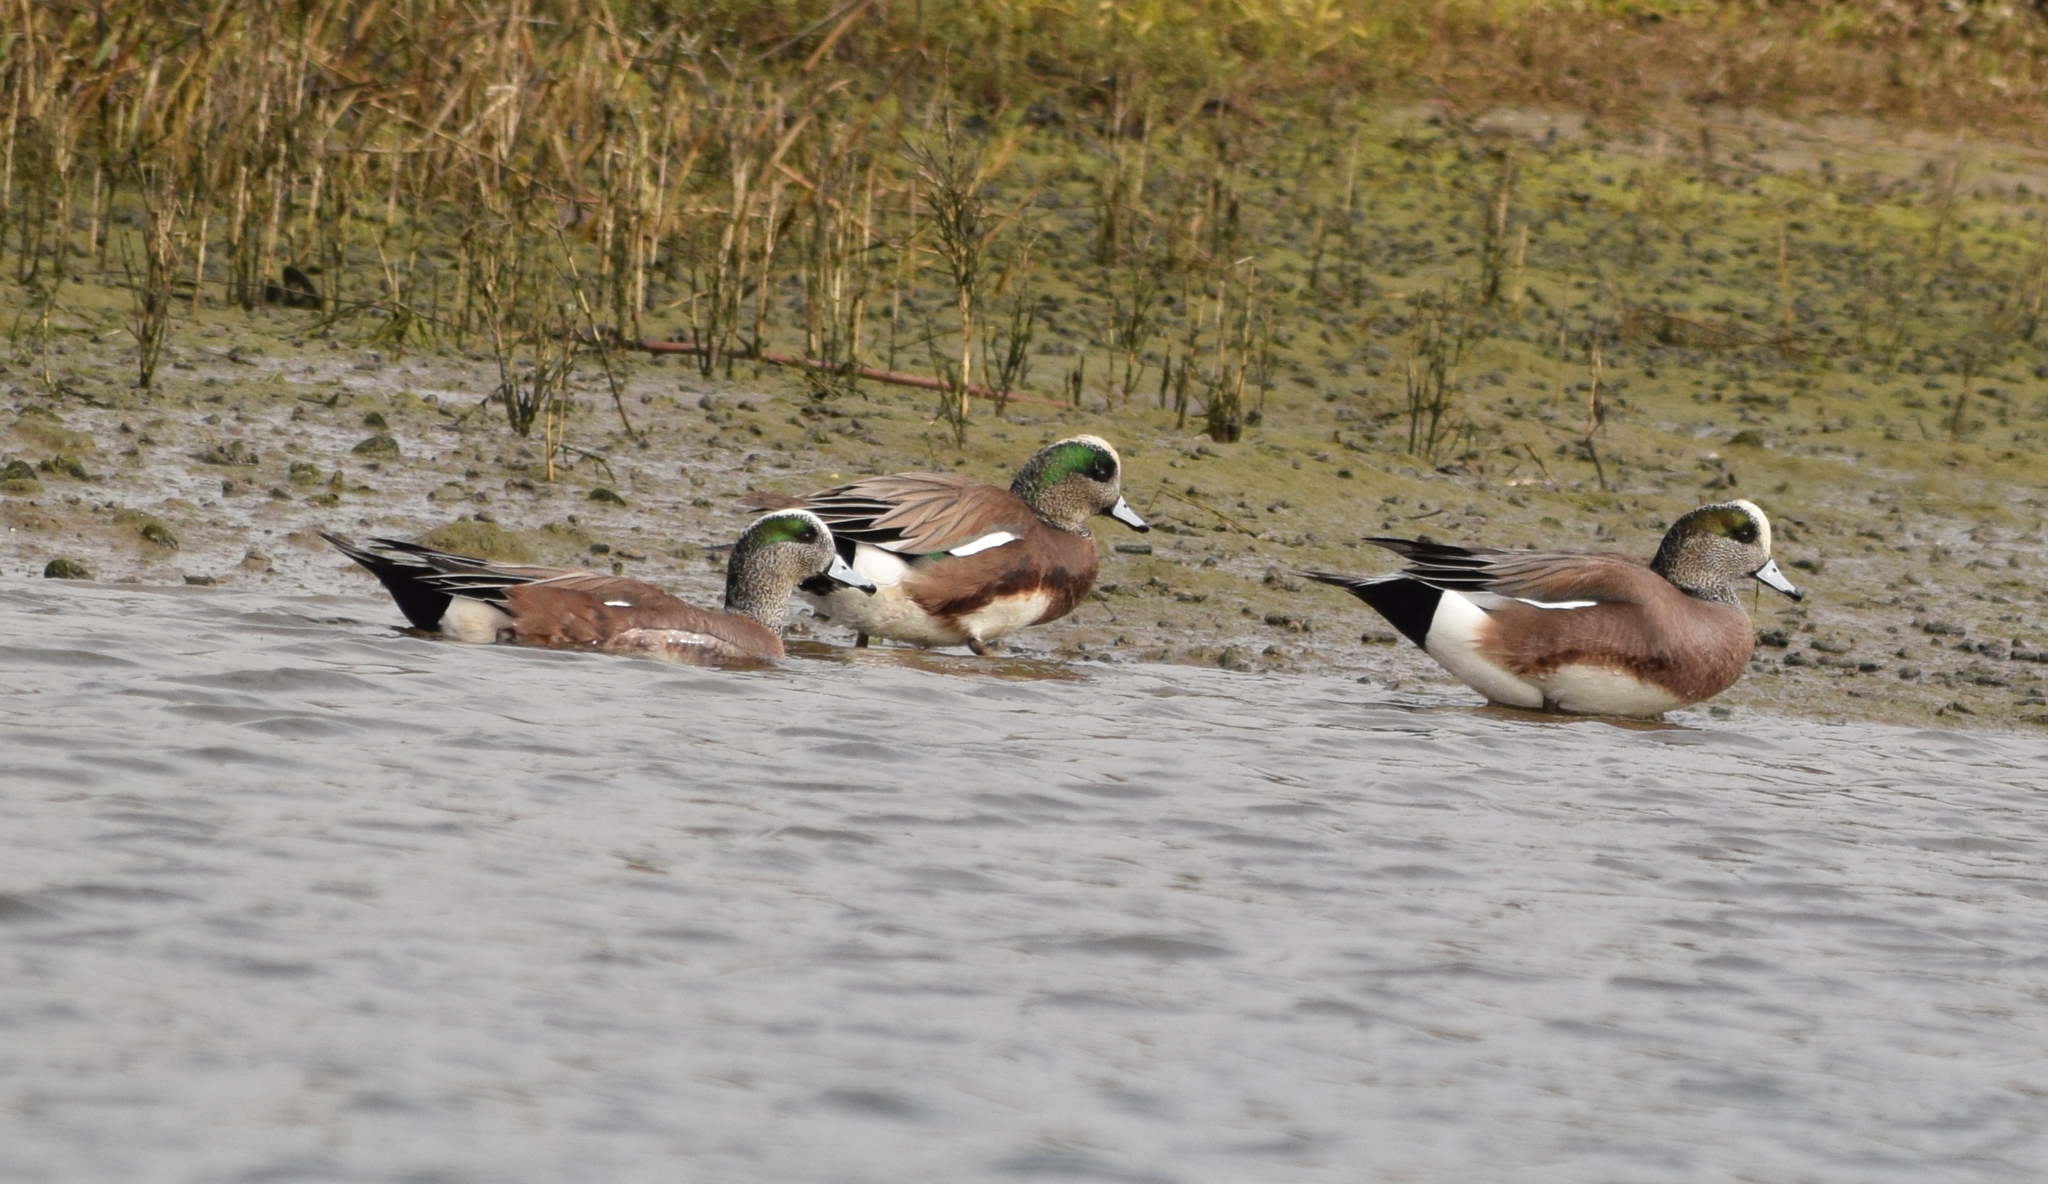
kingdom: Animalia
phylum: Chordata
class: Aves
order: Anseriformes
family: Anatidae
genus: Mareca
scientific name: Mareca americana
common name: American wigeon
